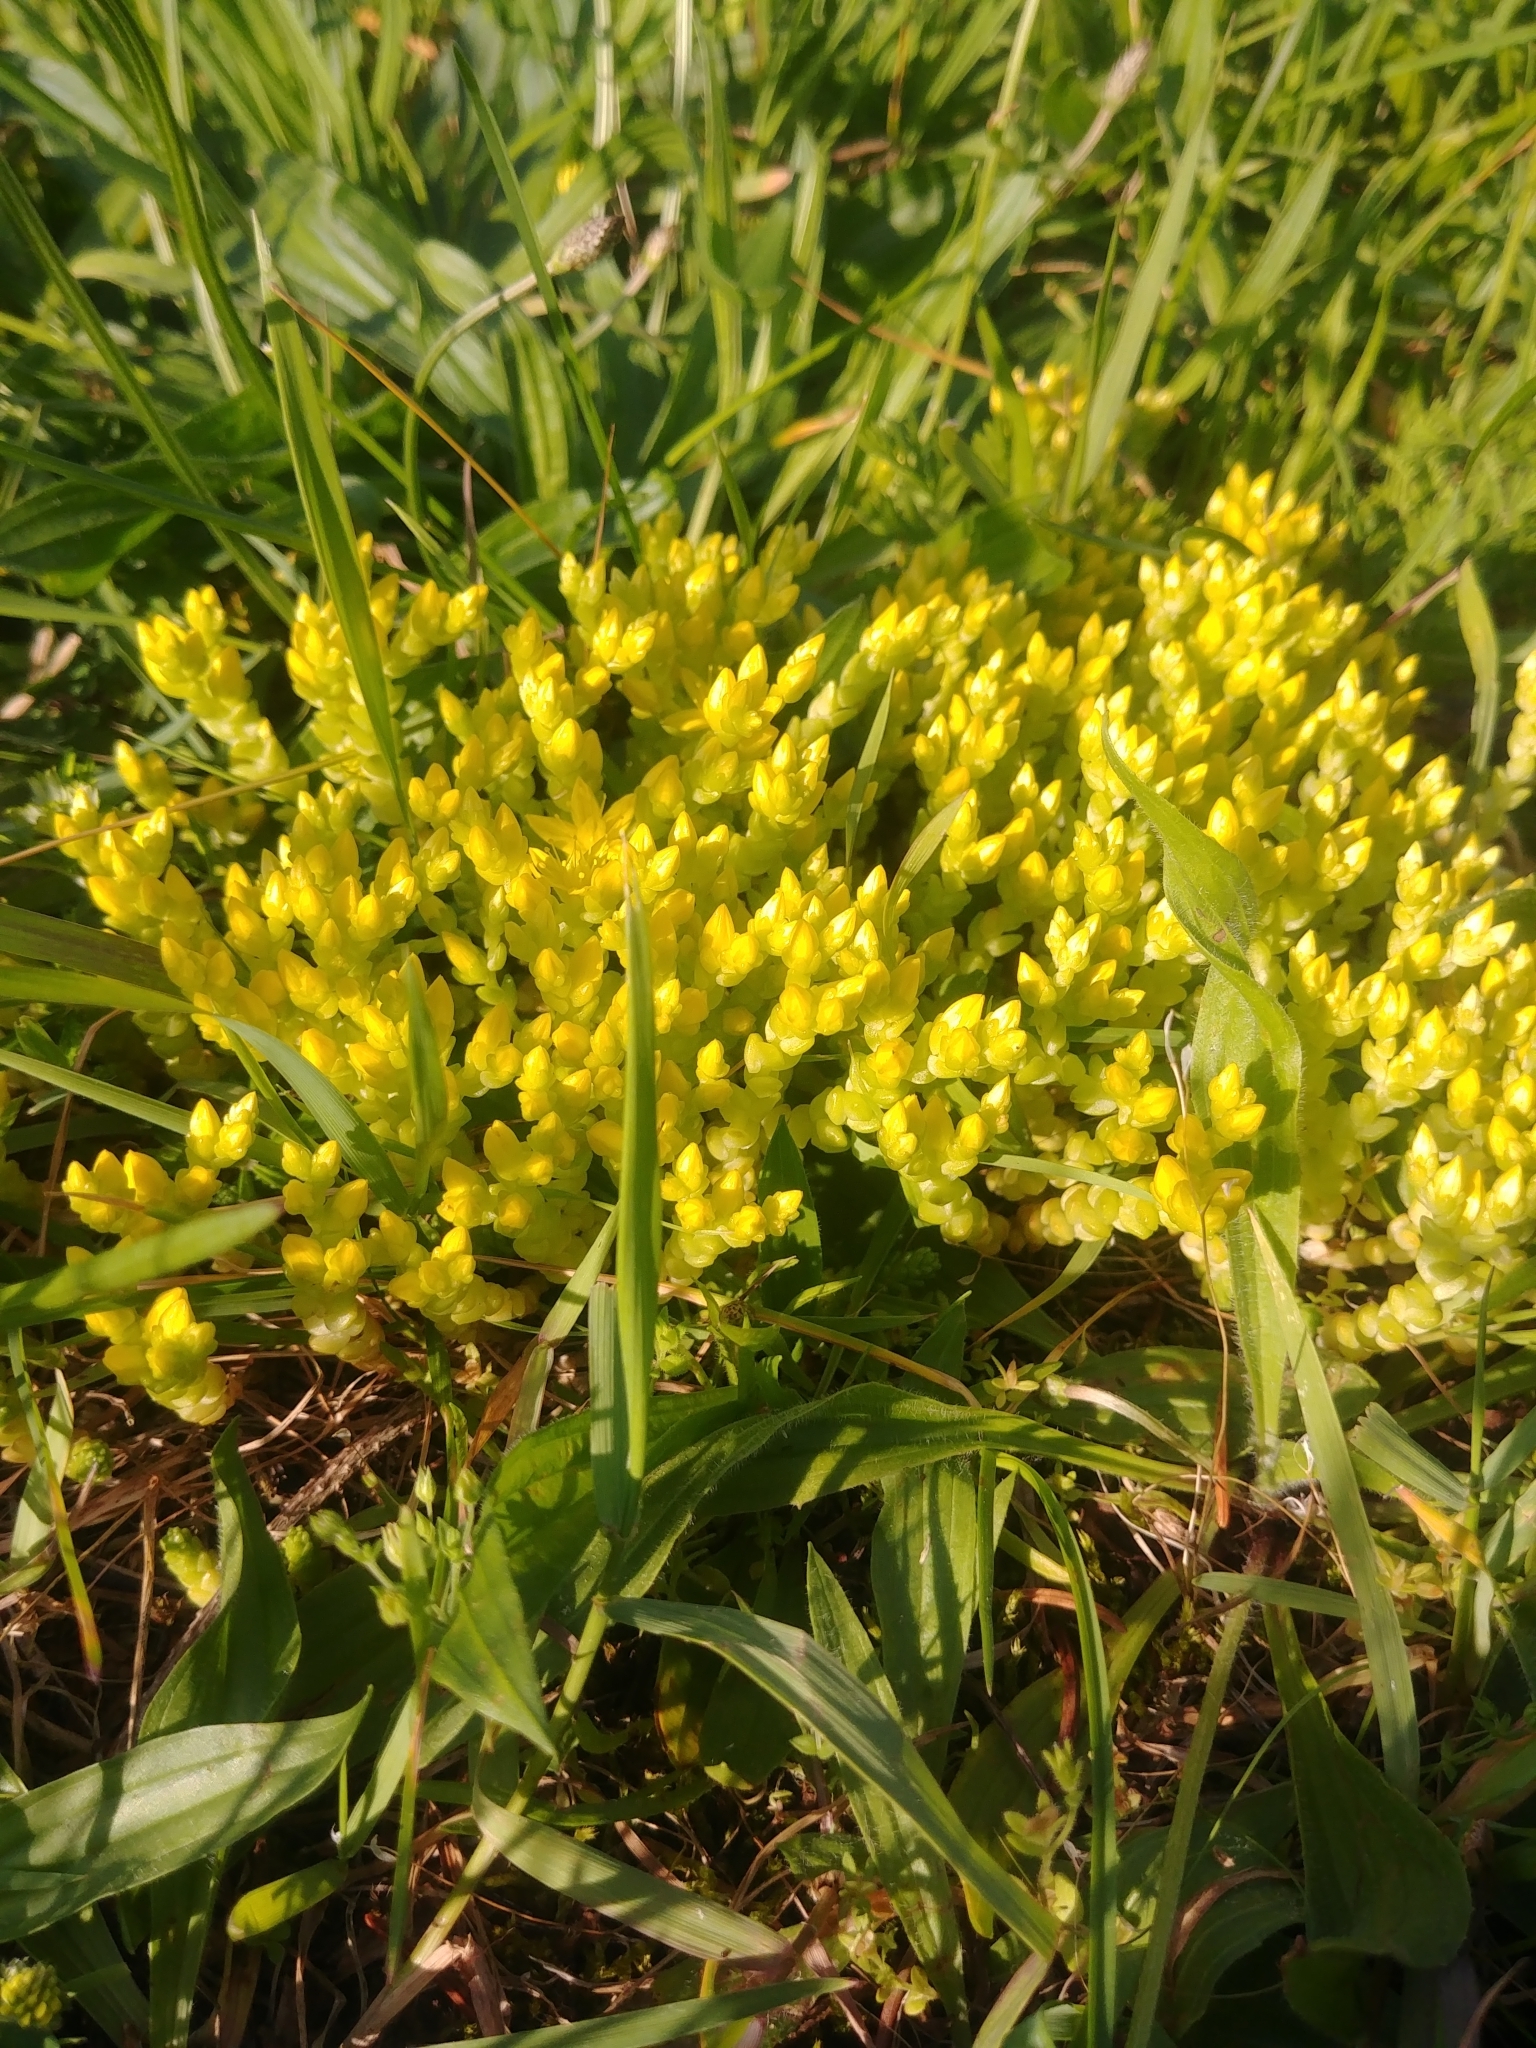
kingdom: Plantae
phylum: Tracheophyta
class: Magnoliopsida
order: Saxifragales
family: Crassulaceae
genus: Sedum
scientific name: Sedum acre
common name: Biting stonecrop
